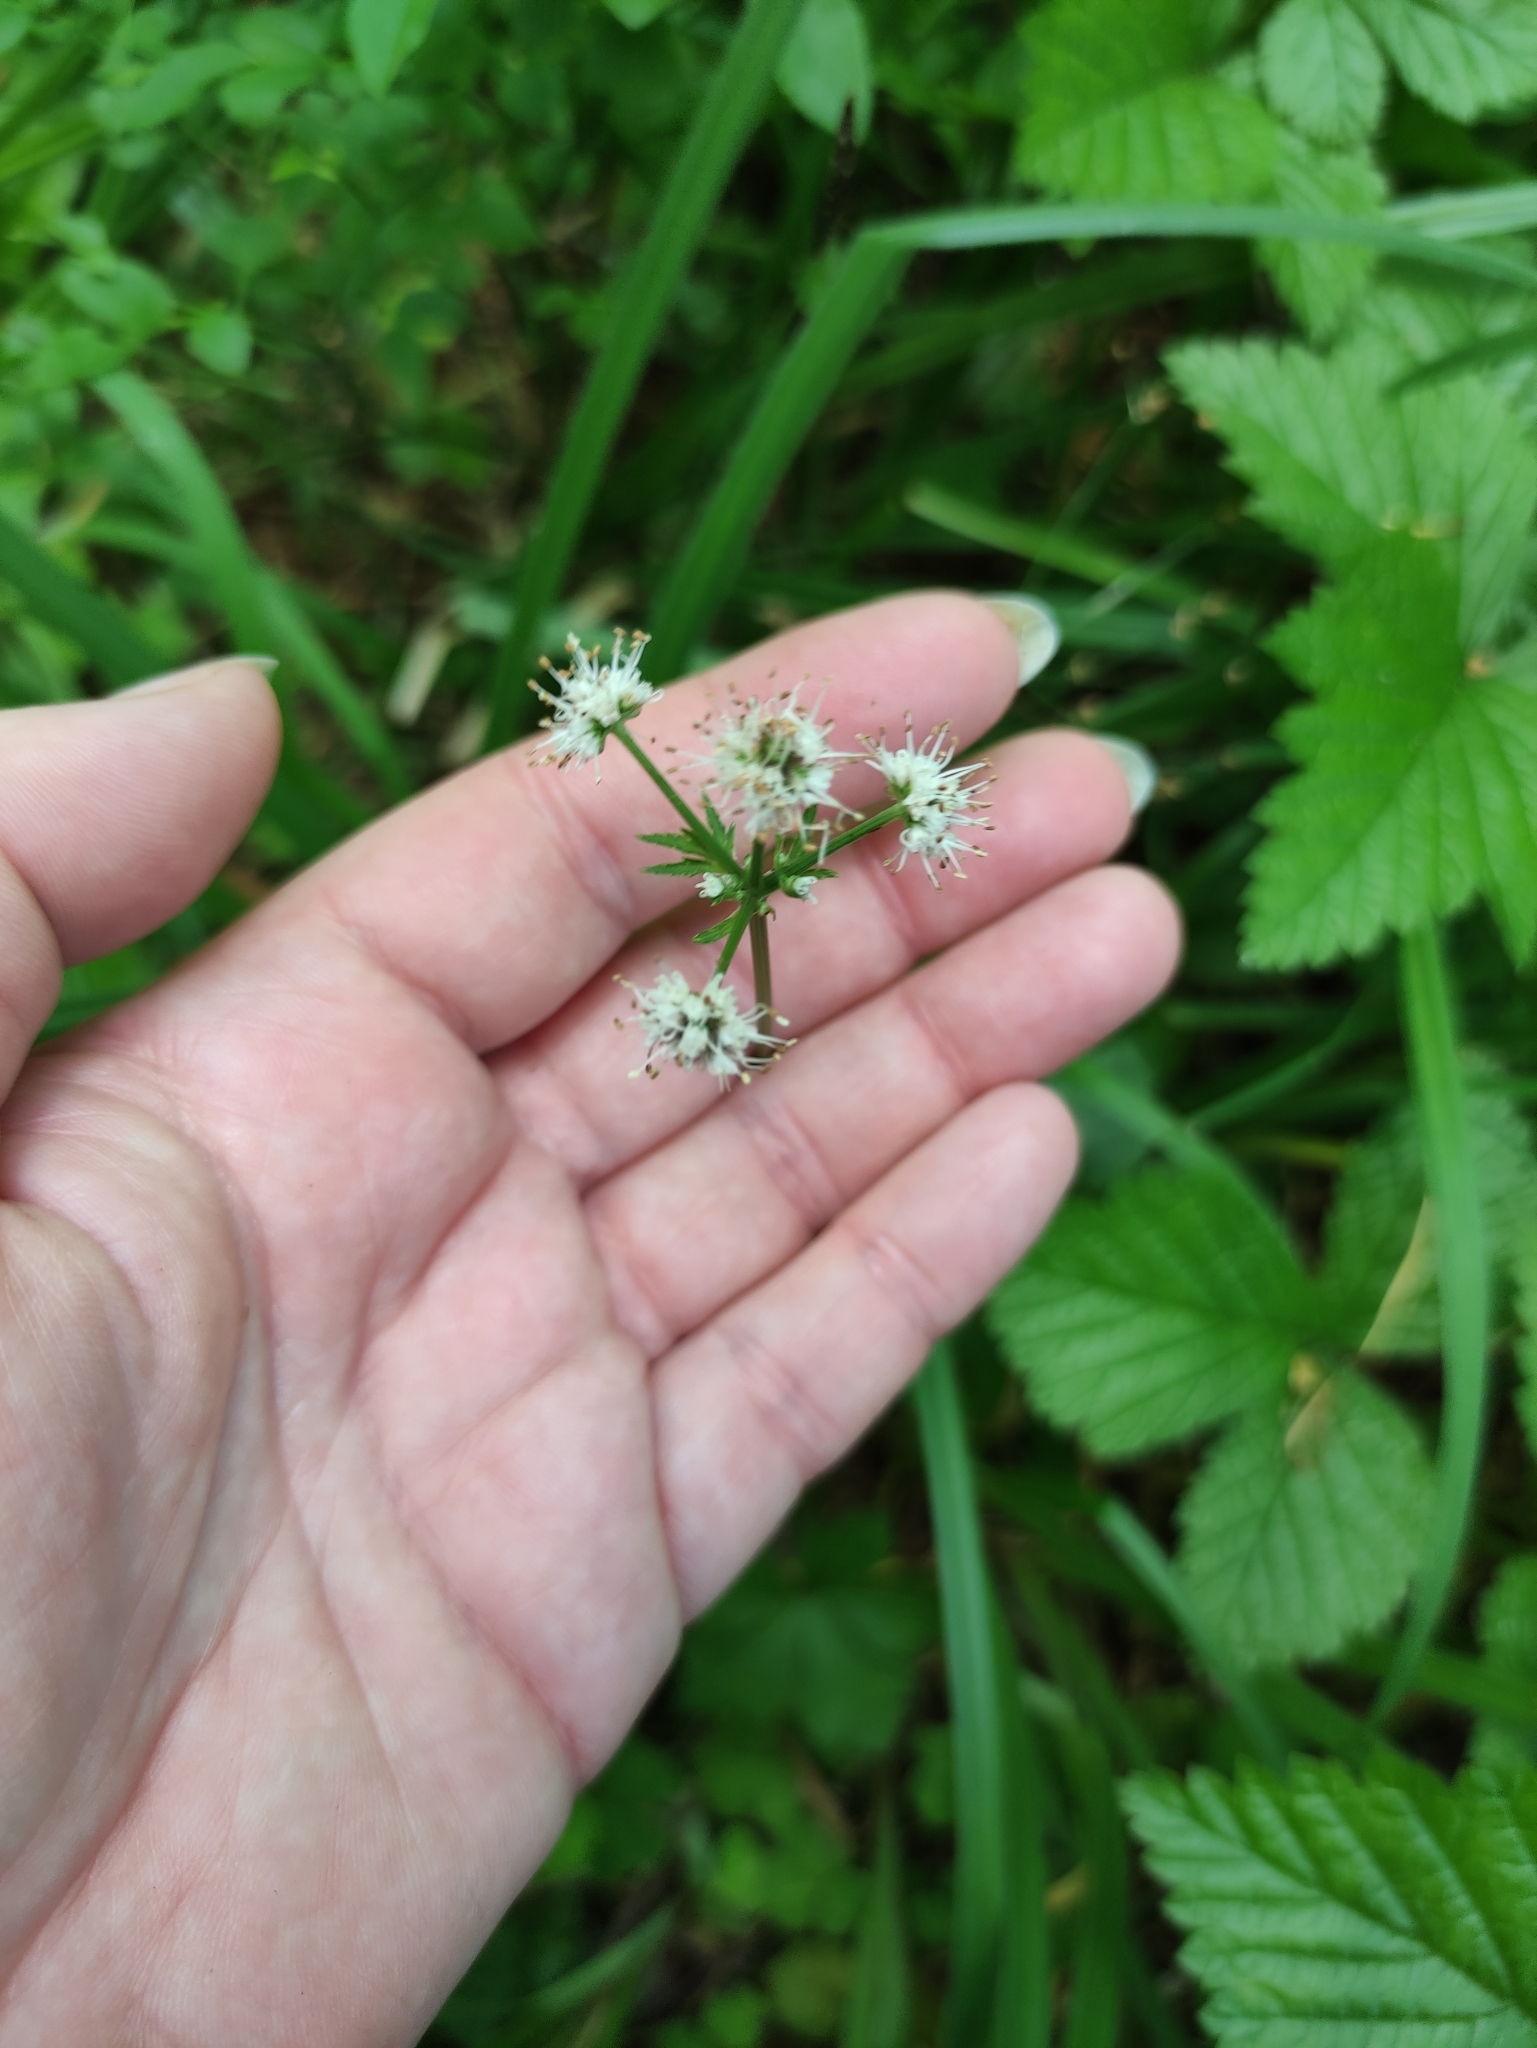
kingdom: Plantae
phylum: Tracheophyta
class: Magnoliopsida
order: Apiales
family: Apiaceae
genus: Sanicula
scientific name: Sanicula europaea
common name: Sanicle
